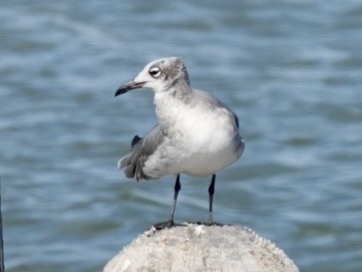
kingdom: Animalia
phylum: Chordata
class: Aves
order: Charadriiformes
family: Laridae
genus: Leucophaeus
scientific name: Leucophaeus atricilla
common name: Laughing gull
